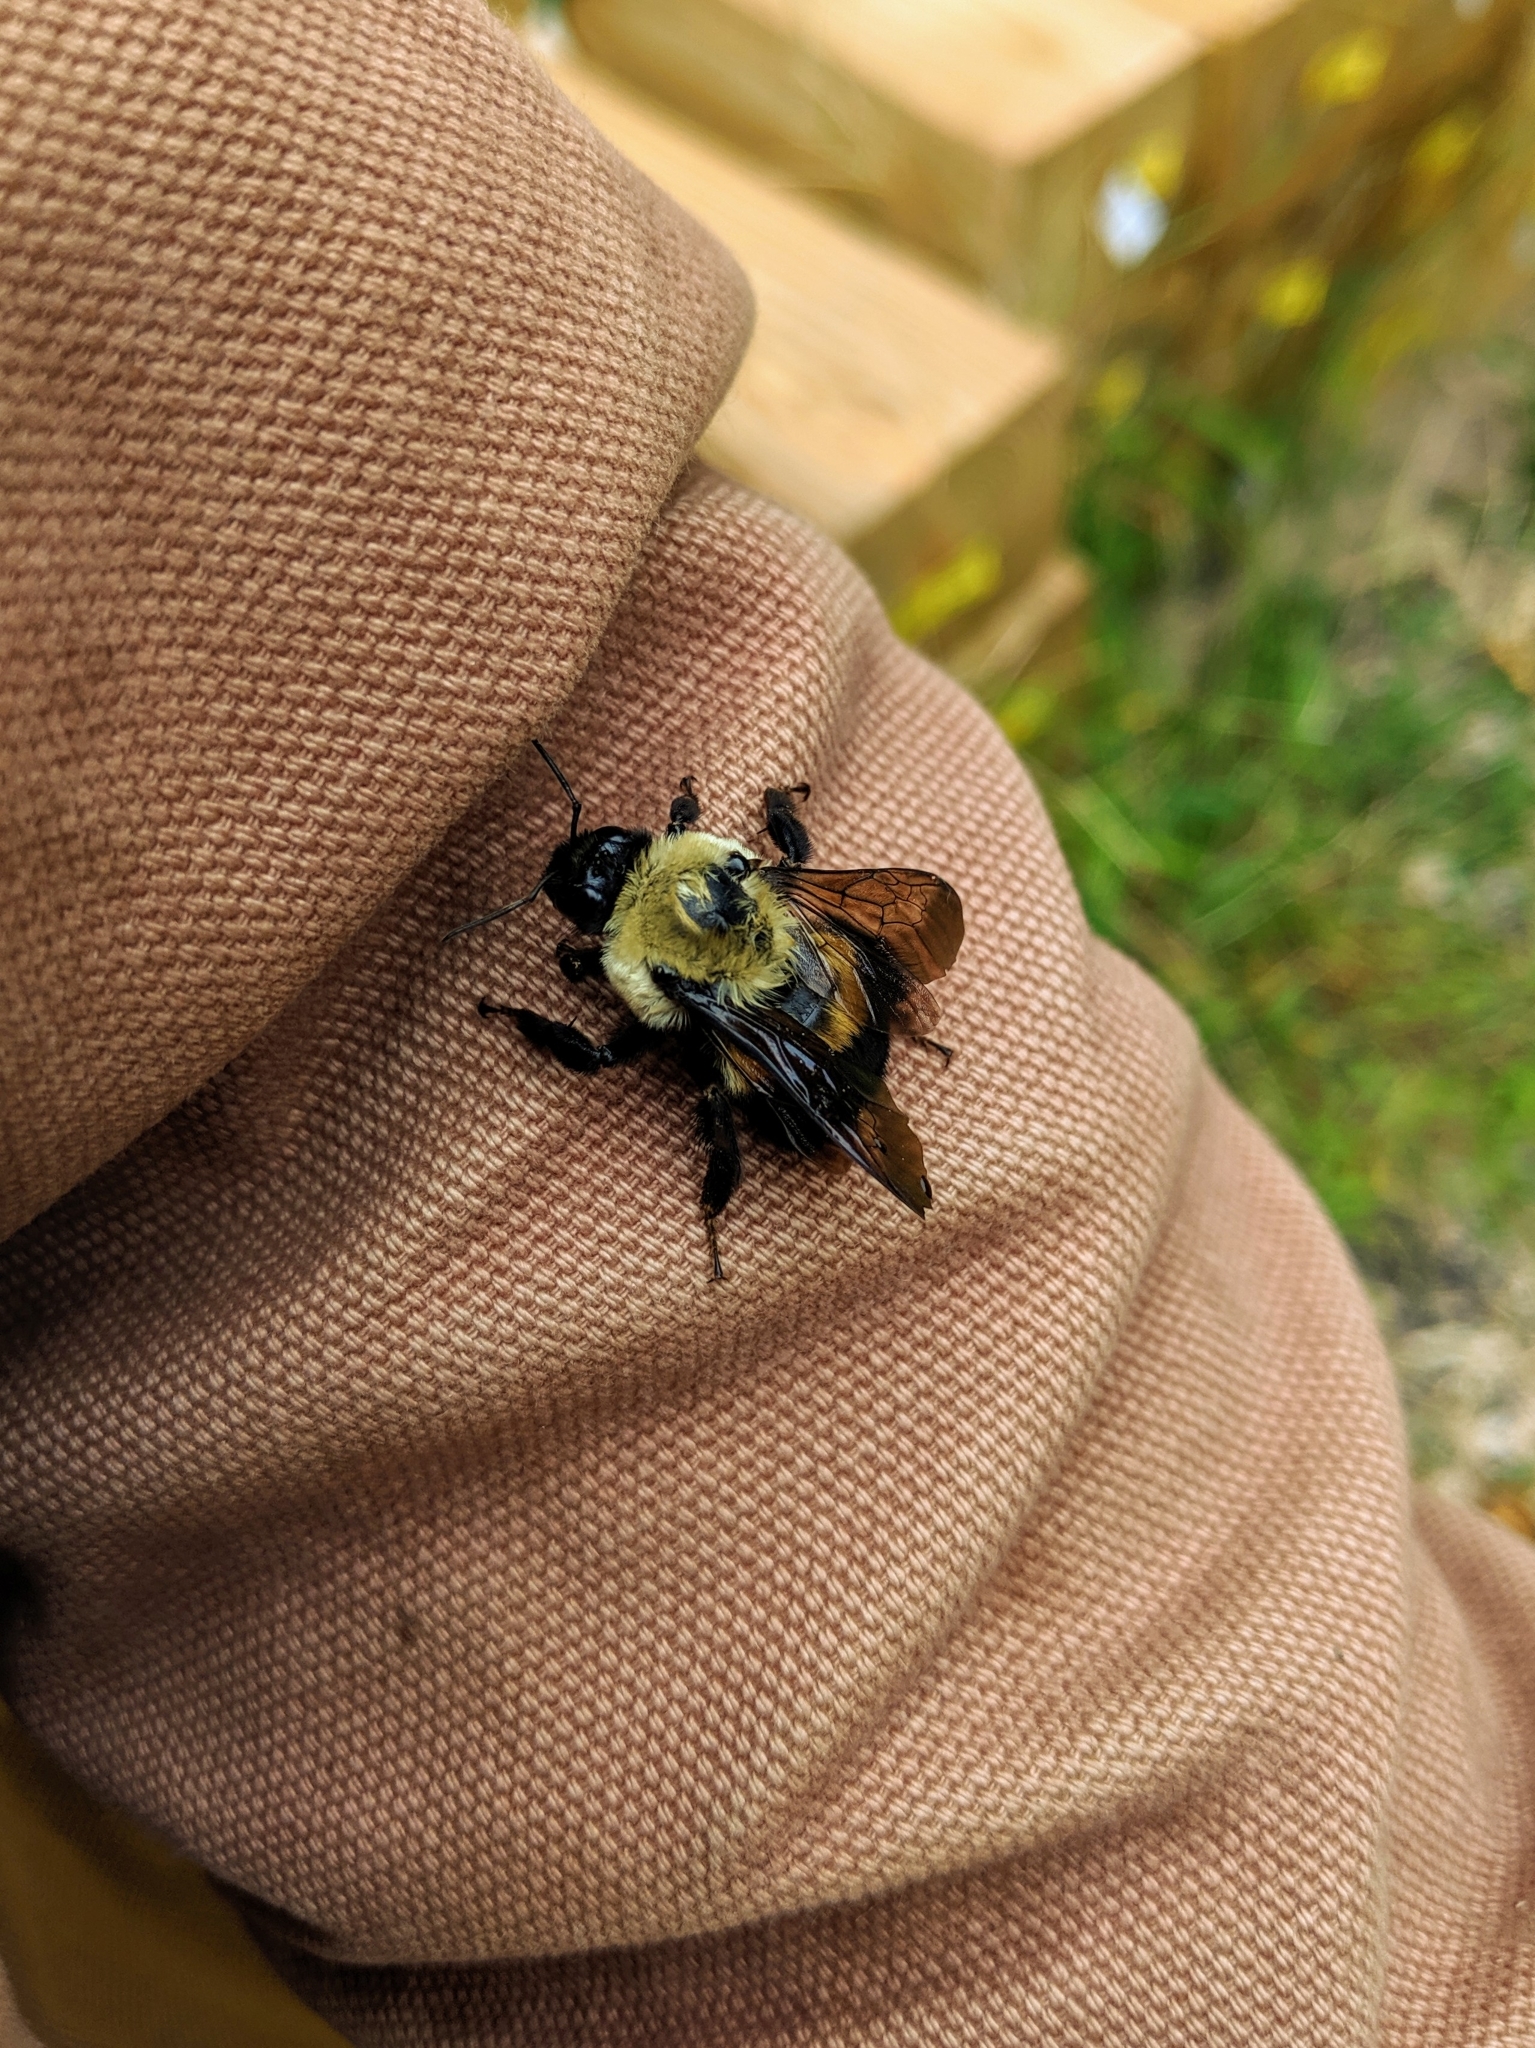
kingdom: Animalia
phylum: Arthropoda
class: Insecta
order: Hymenoptera
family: Apidae
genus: Bombus
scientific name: Bombus griseocollis
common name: Brown-belted bumble bee
